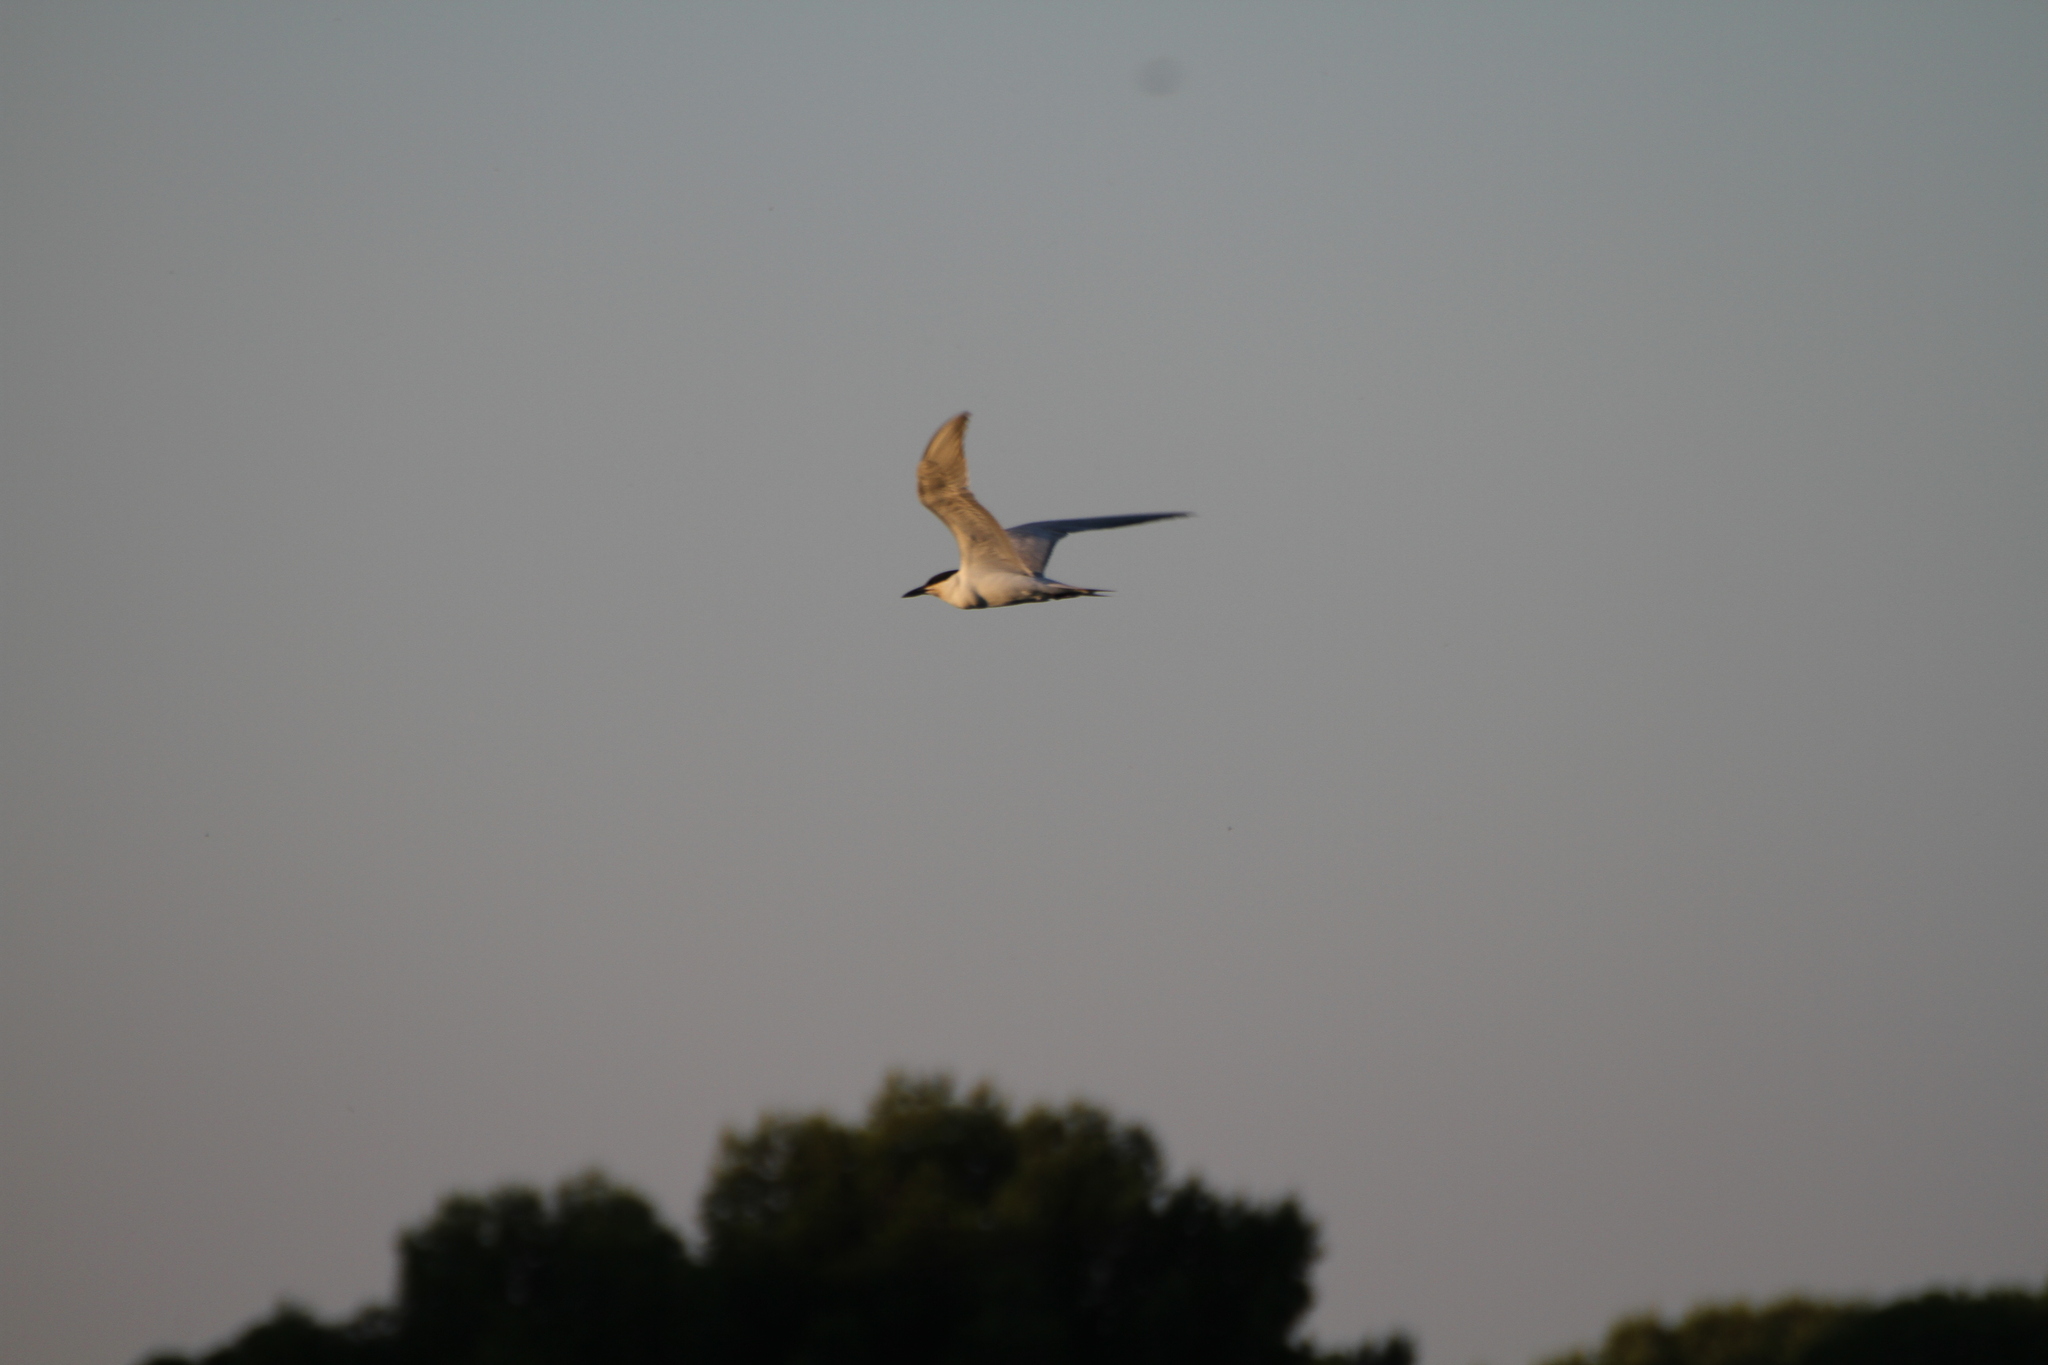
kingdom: Animalia
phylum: Chordata
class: Aves
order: Charadriiformes
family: Laridae
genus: Gelochelidon
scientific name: Gelochelidon nilotica
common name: Gull-billed tern
